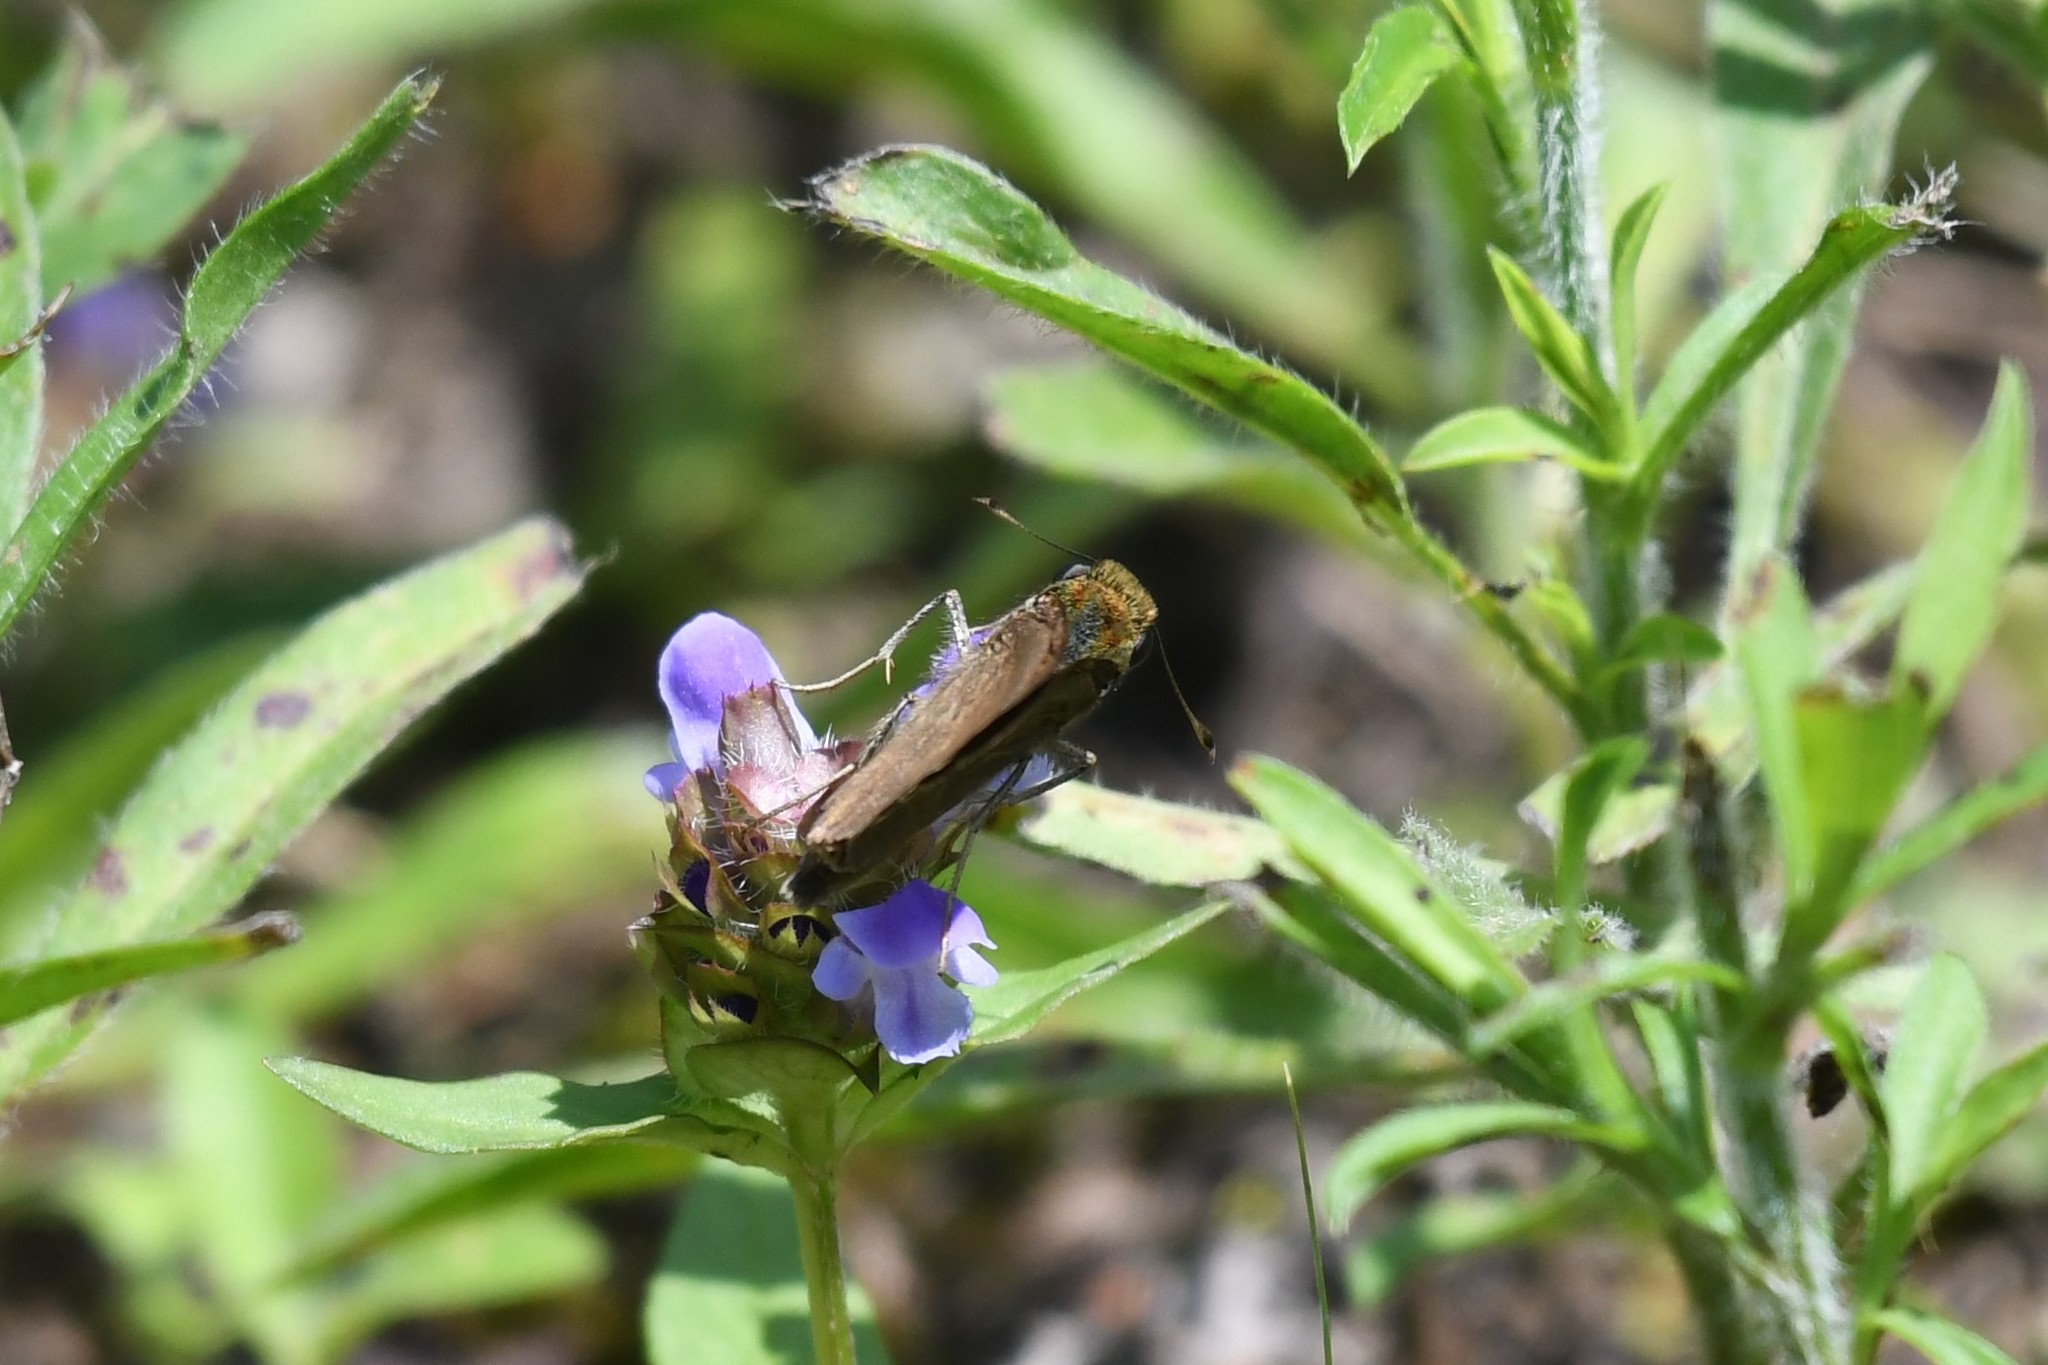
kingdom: Animalia
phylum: Arthropoda
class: Insecta
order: Lepidoptera
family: Hesperiidae
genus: Euphyes
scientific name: Euphyes vestris
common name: Dun skipper
